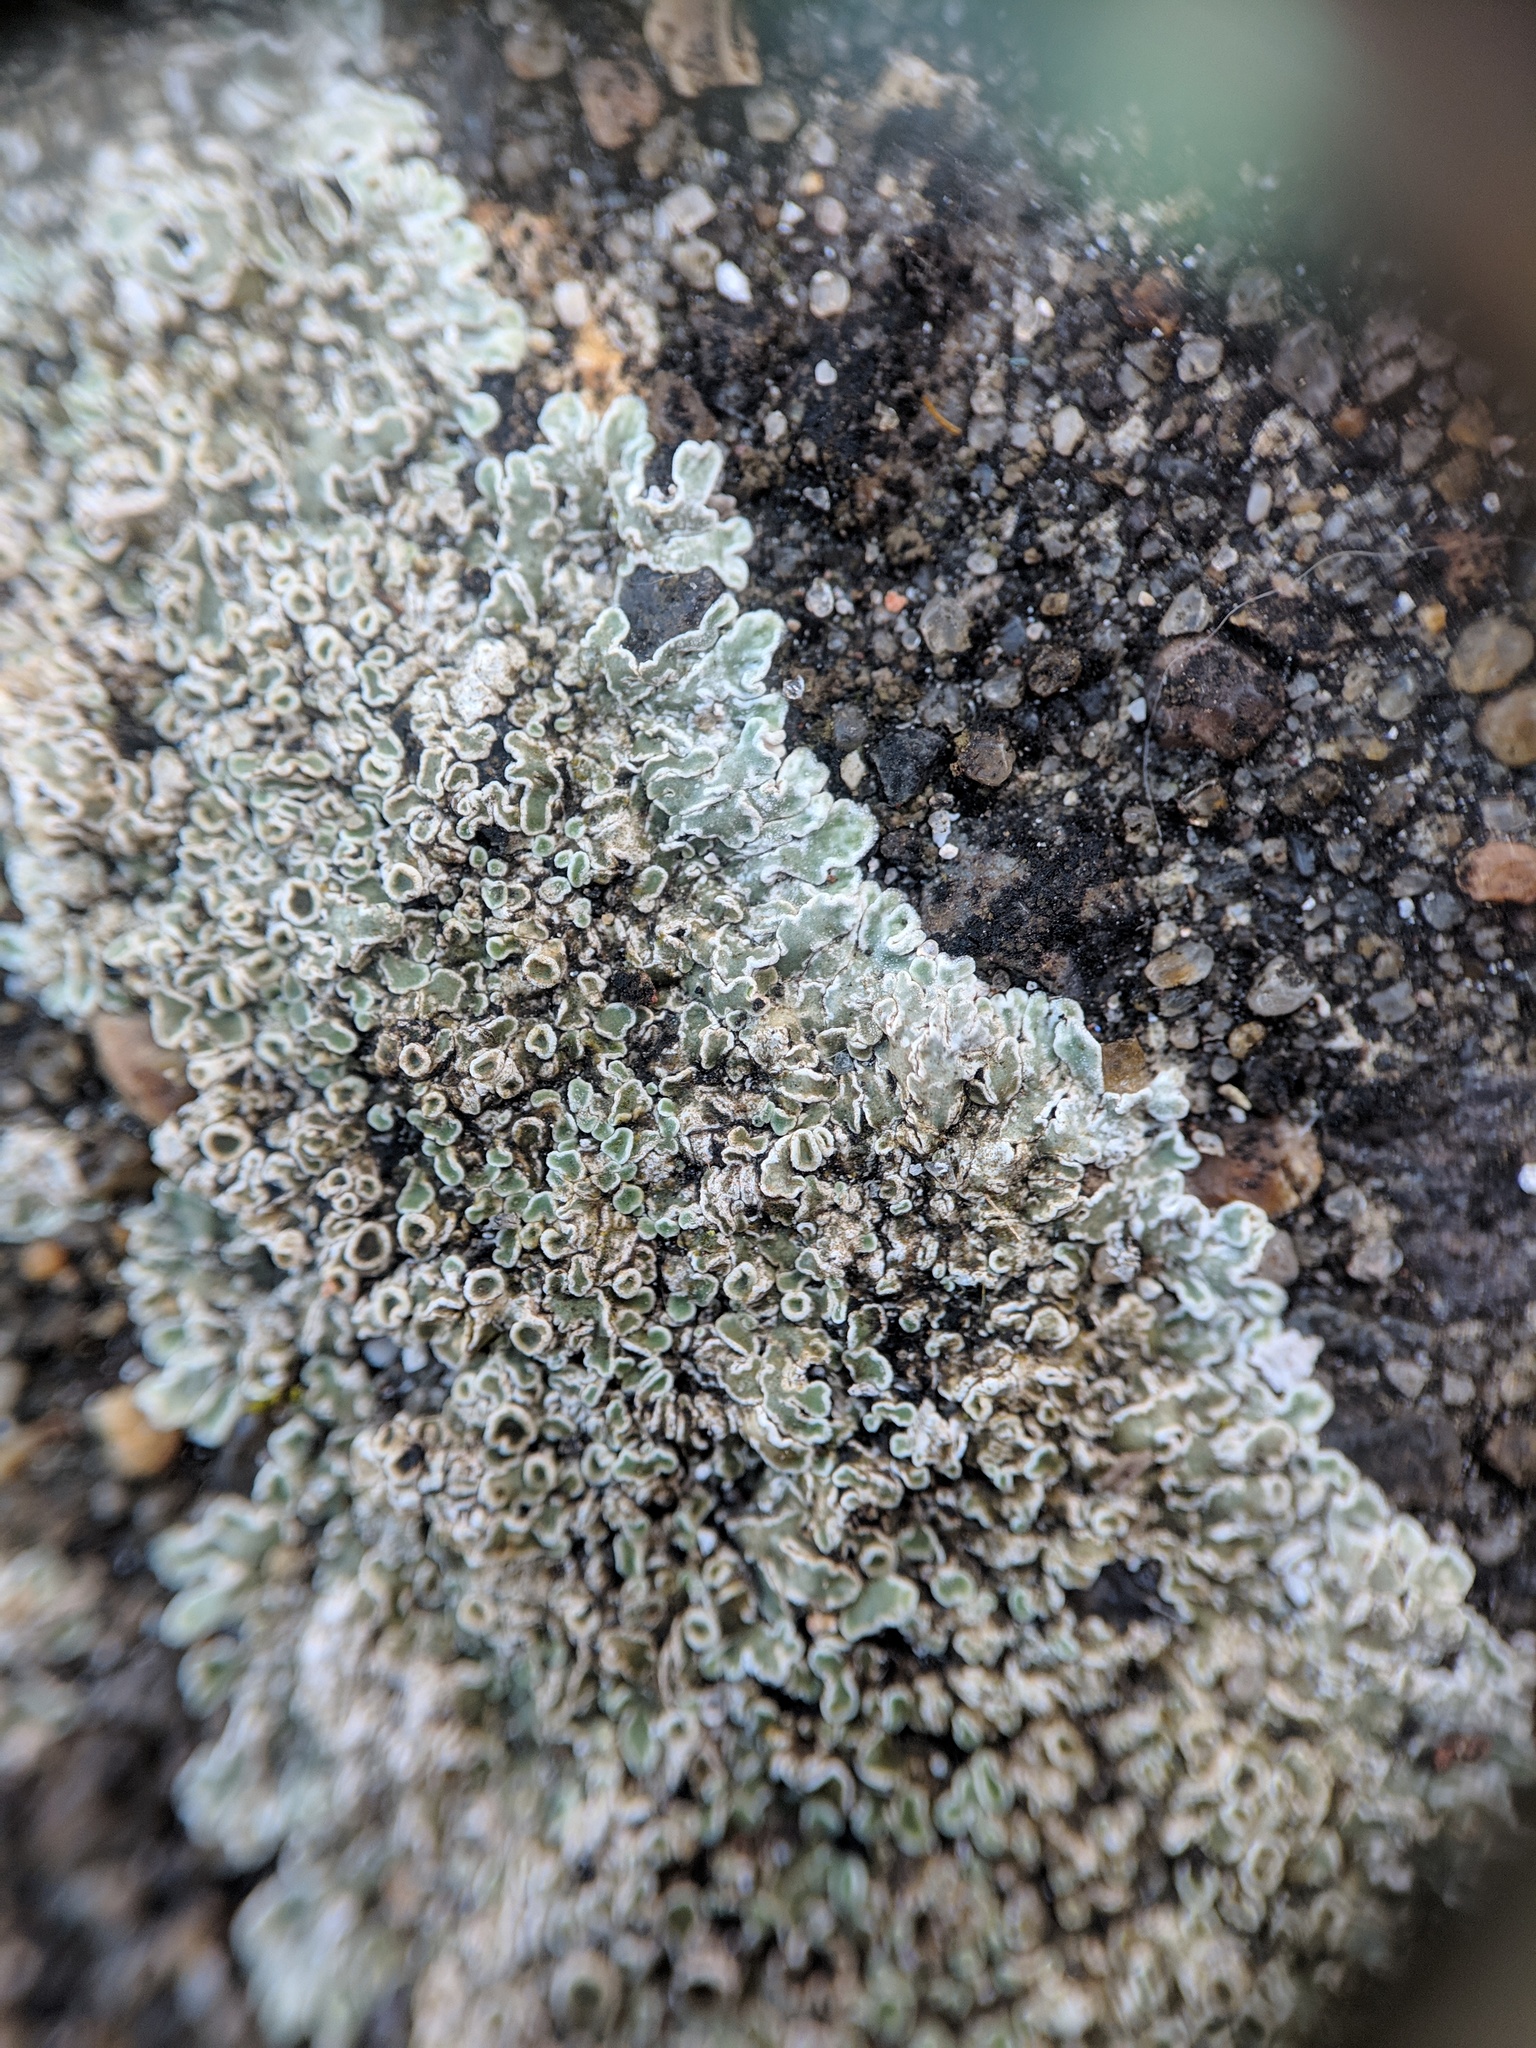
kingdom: Fungi
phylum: Ascomycota
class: Lecanoromycetes
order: Lecanorales
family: Lecanoraceae
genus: Protoparmeliopsis
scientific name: Protoparmeliopsis muralis
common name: Stonewall rim lichen
